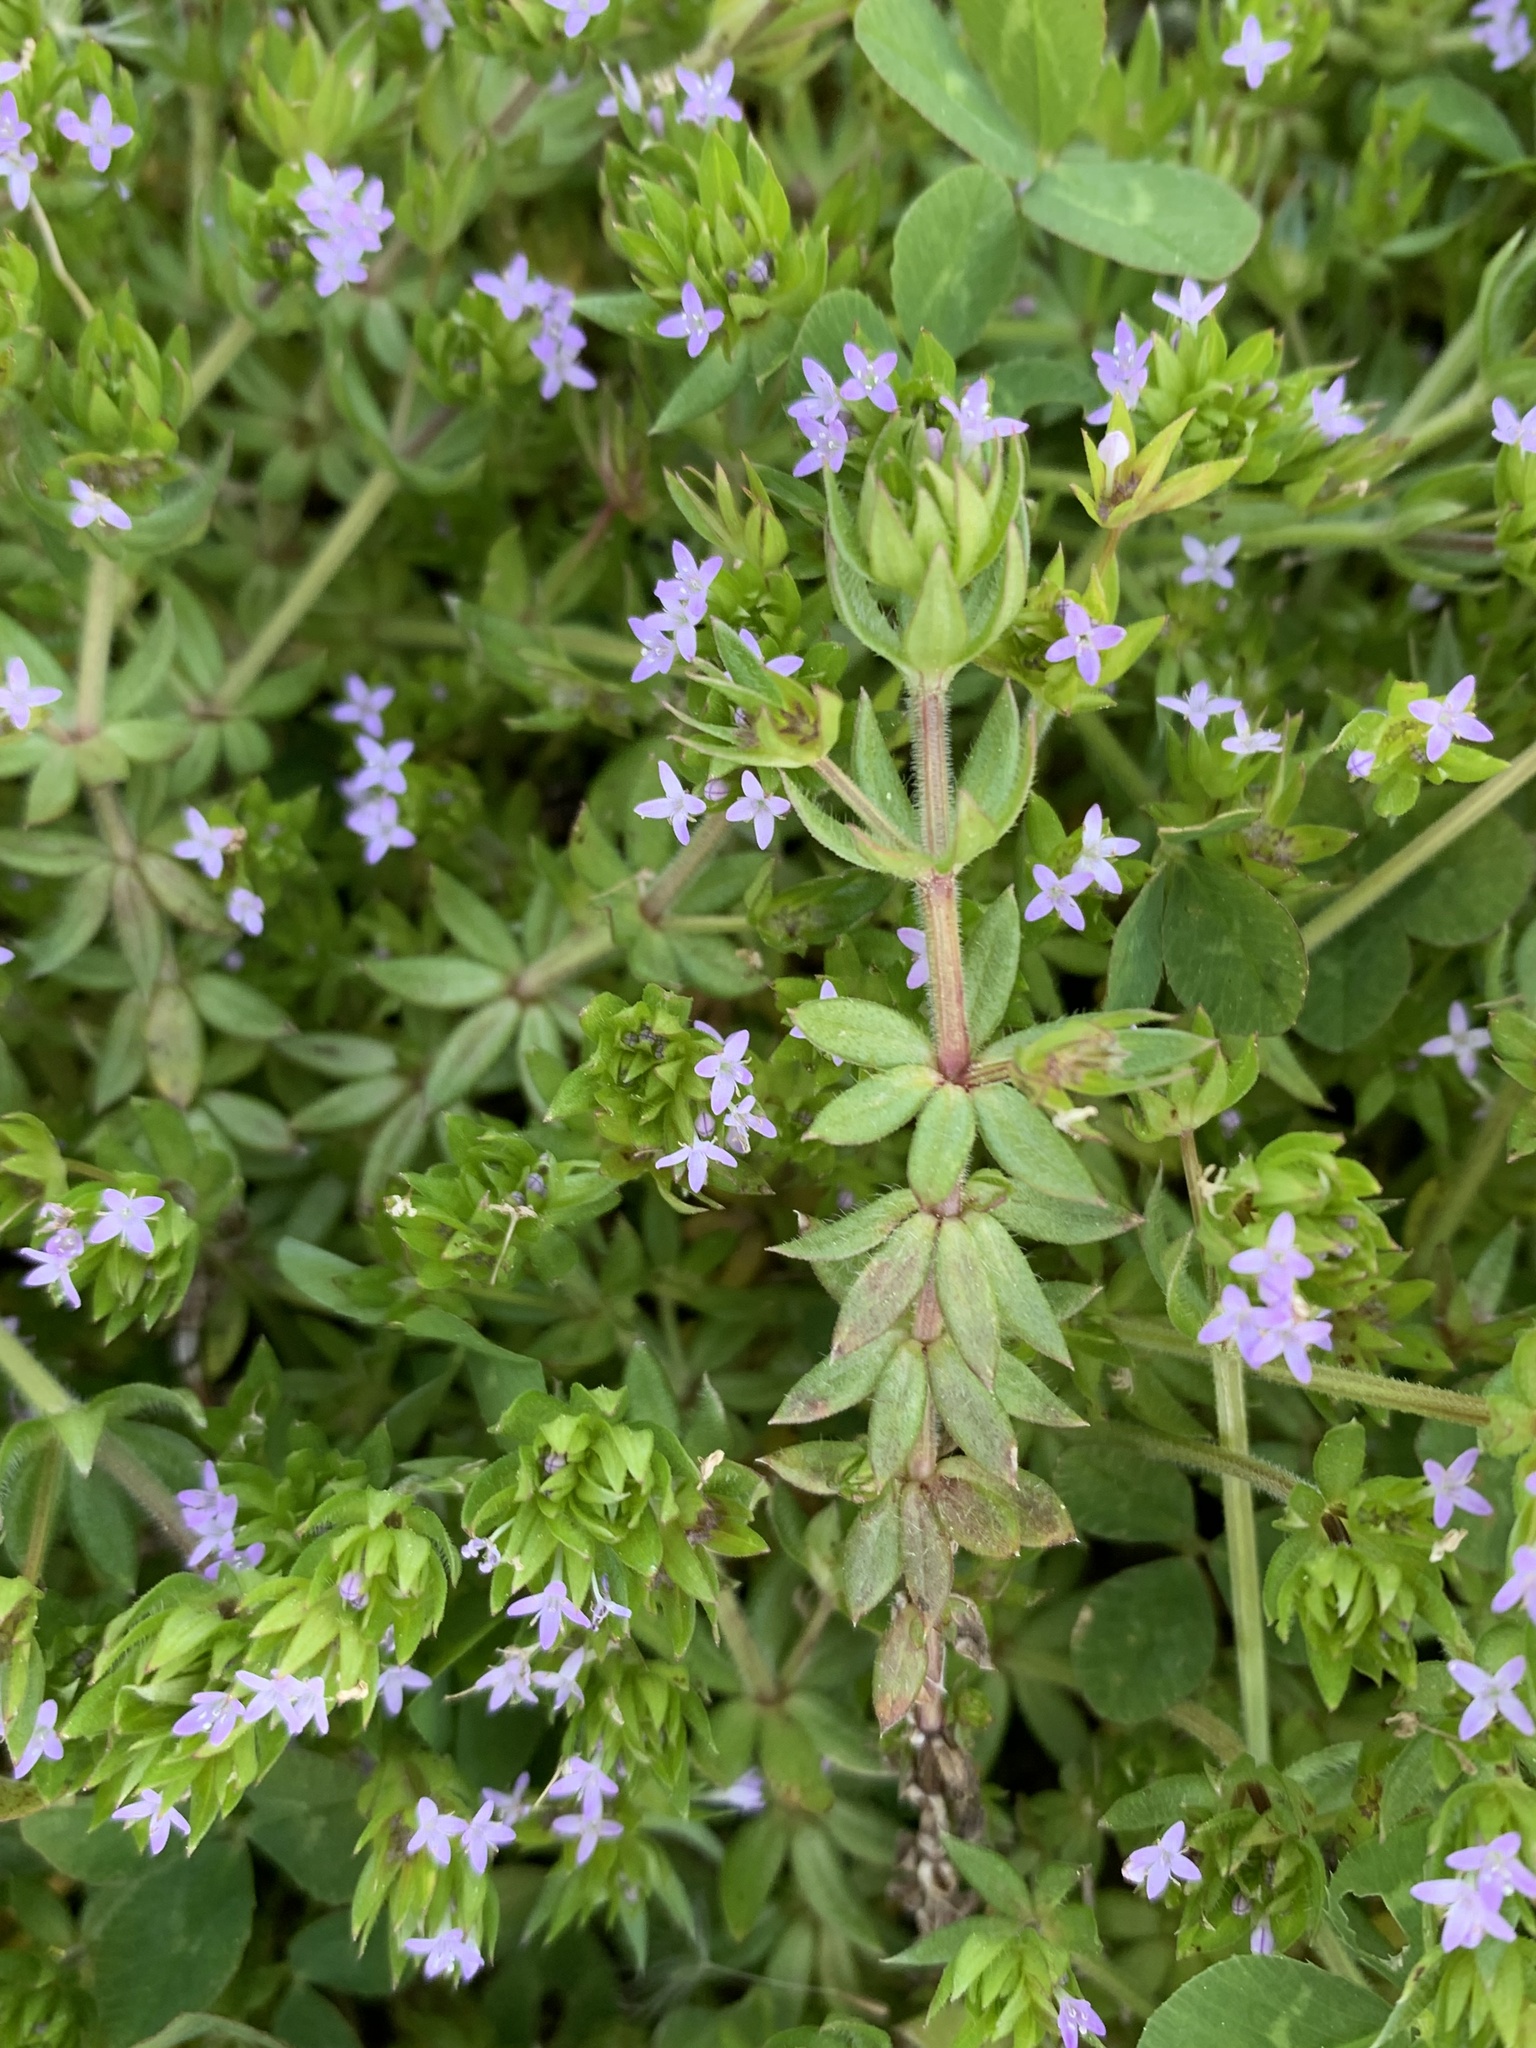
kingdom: Plantae
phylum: Tracheophyta
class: Magnoliopsida
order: Gentianales
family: Rubiaceae
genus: Sherardia
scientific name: Sherardia arvensis
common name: Field madder
